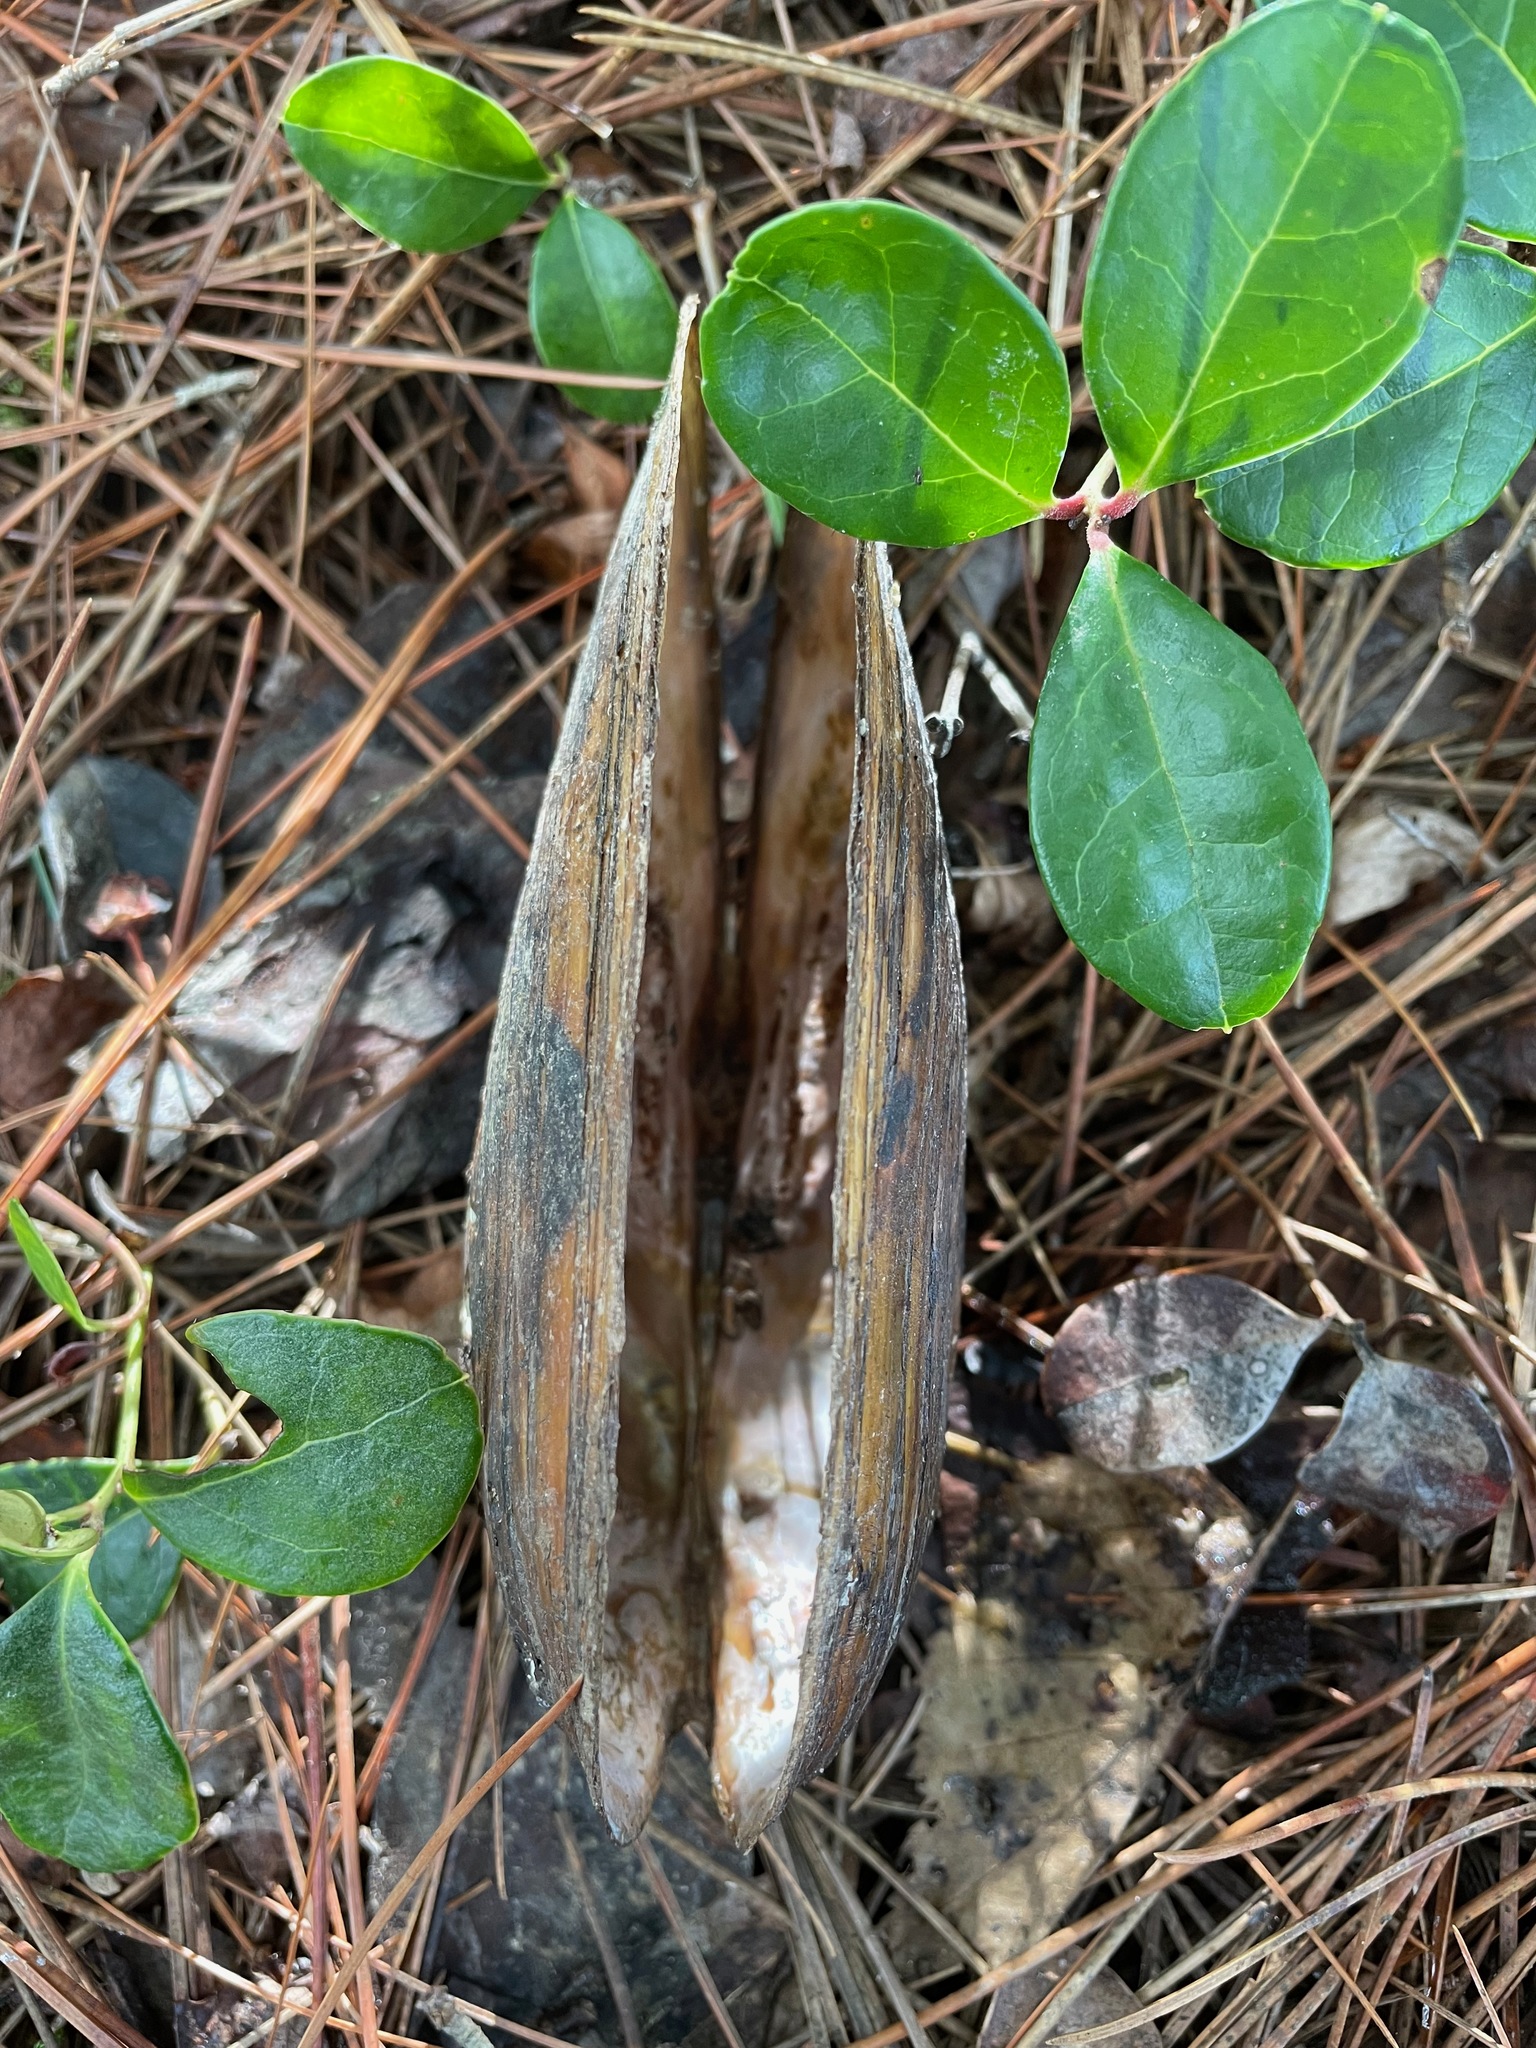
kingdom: Animalia
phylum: Mollusca
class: Bivalvia
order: Unionida
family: Unionidae
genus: Pyganodon
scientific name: Pyganodon cataracta
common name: Eastern floater
